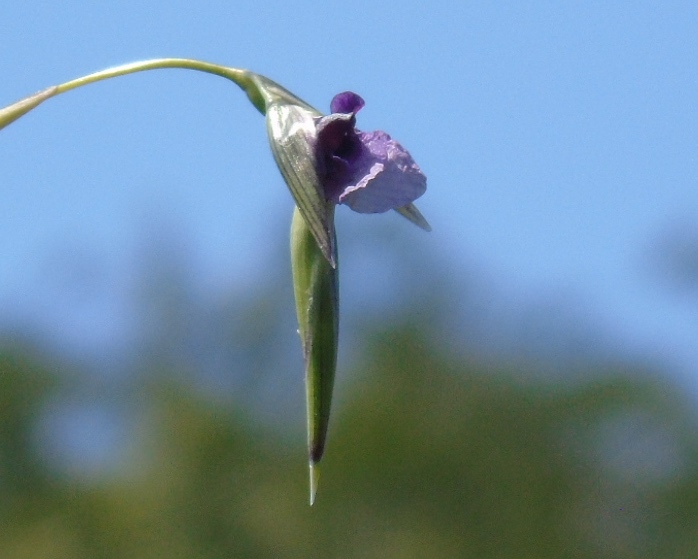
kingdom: Plantae
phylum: Tracheophyta
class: Liliopsida
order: Zingiberales
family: Marantaceae
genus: Thalia
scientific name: Thalia geniculata
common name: Arrowroot
